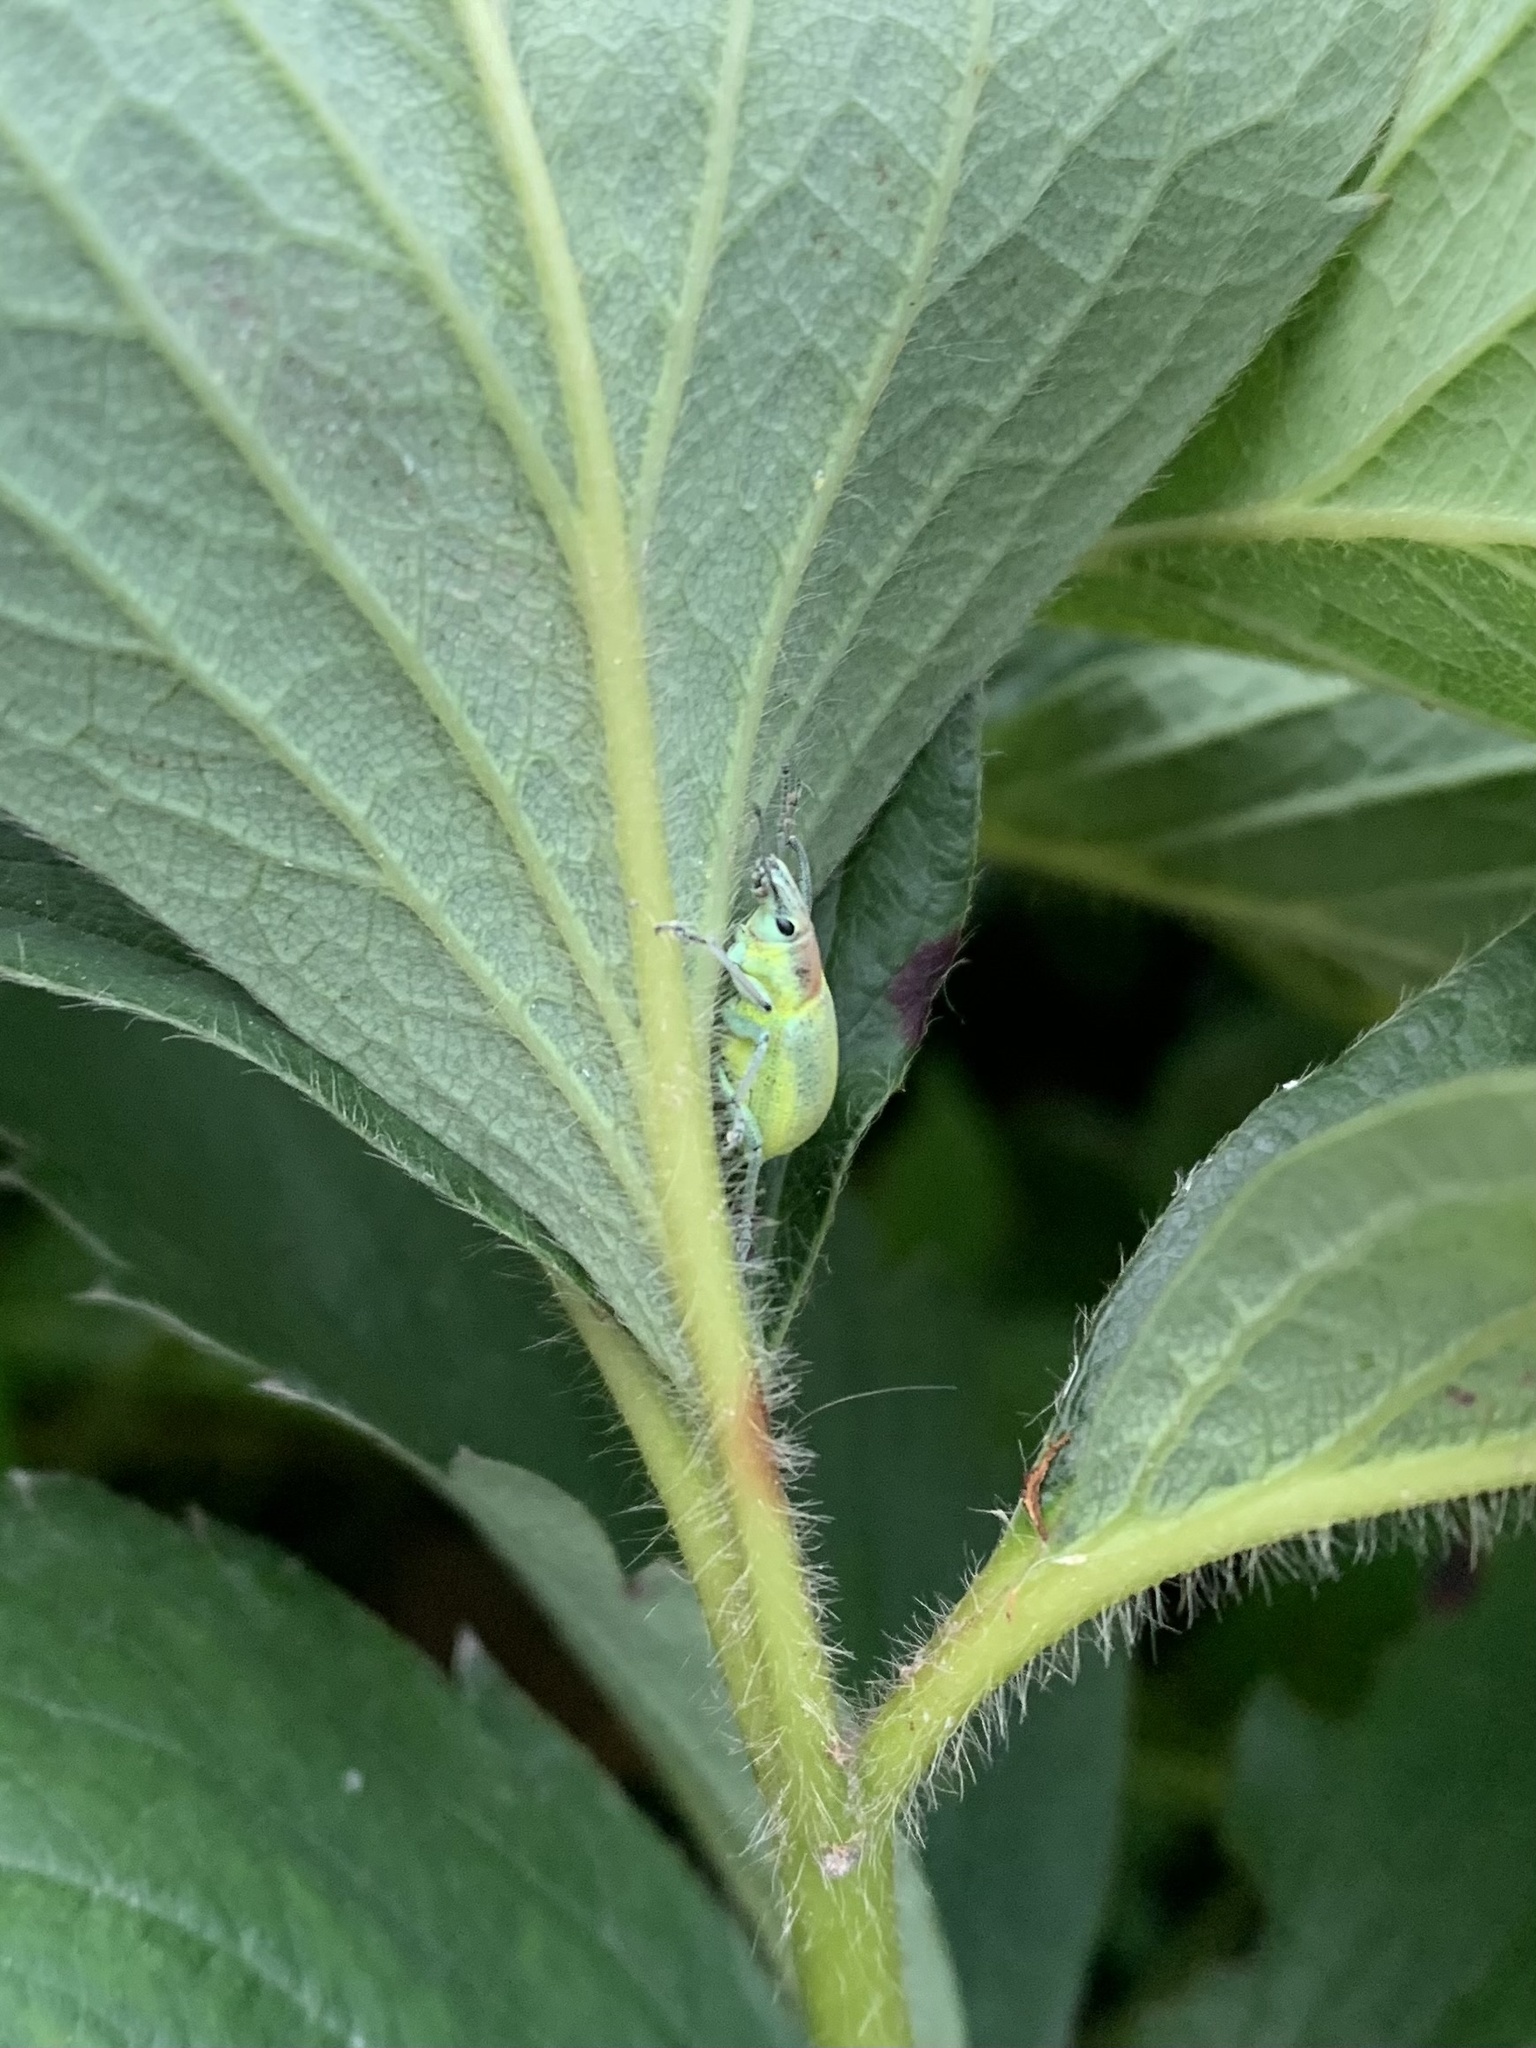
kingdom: Animalia
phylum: Arthropoda
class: Insecta
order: Coleoptera
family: Curculionidae
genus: Chlorophanus
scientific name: Chlorophanus micans
